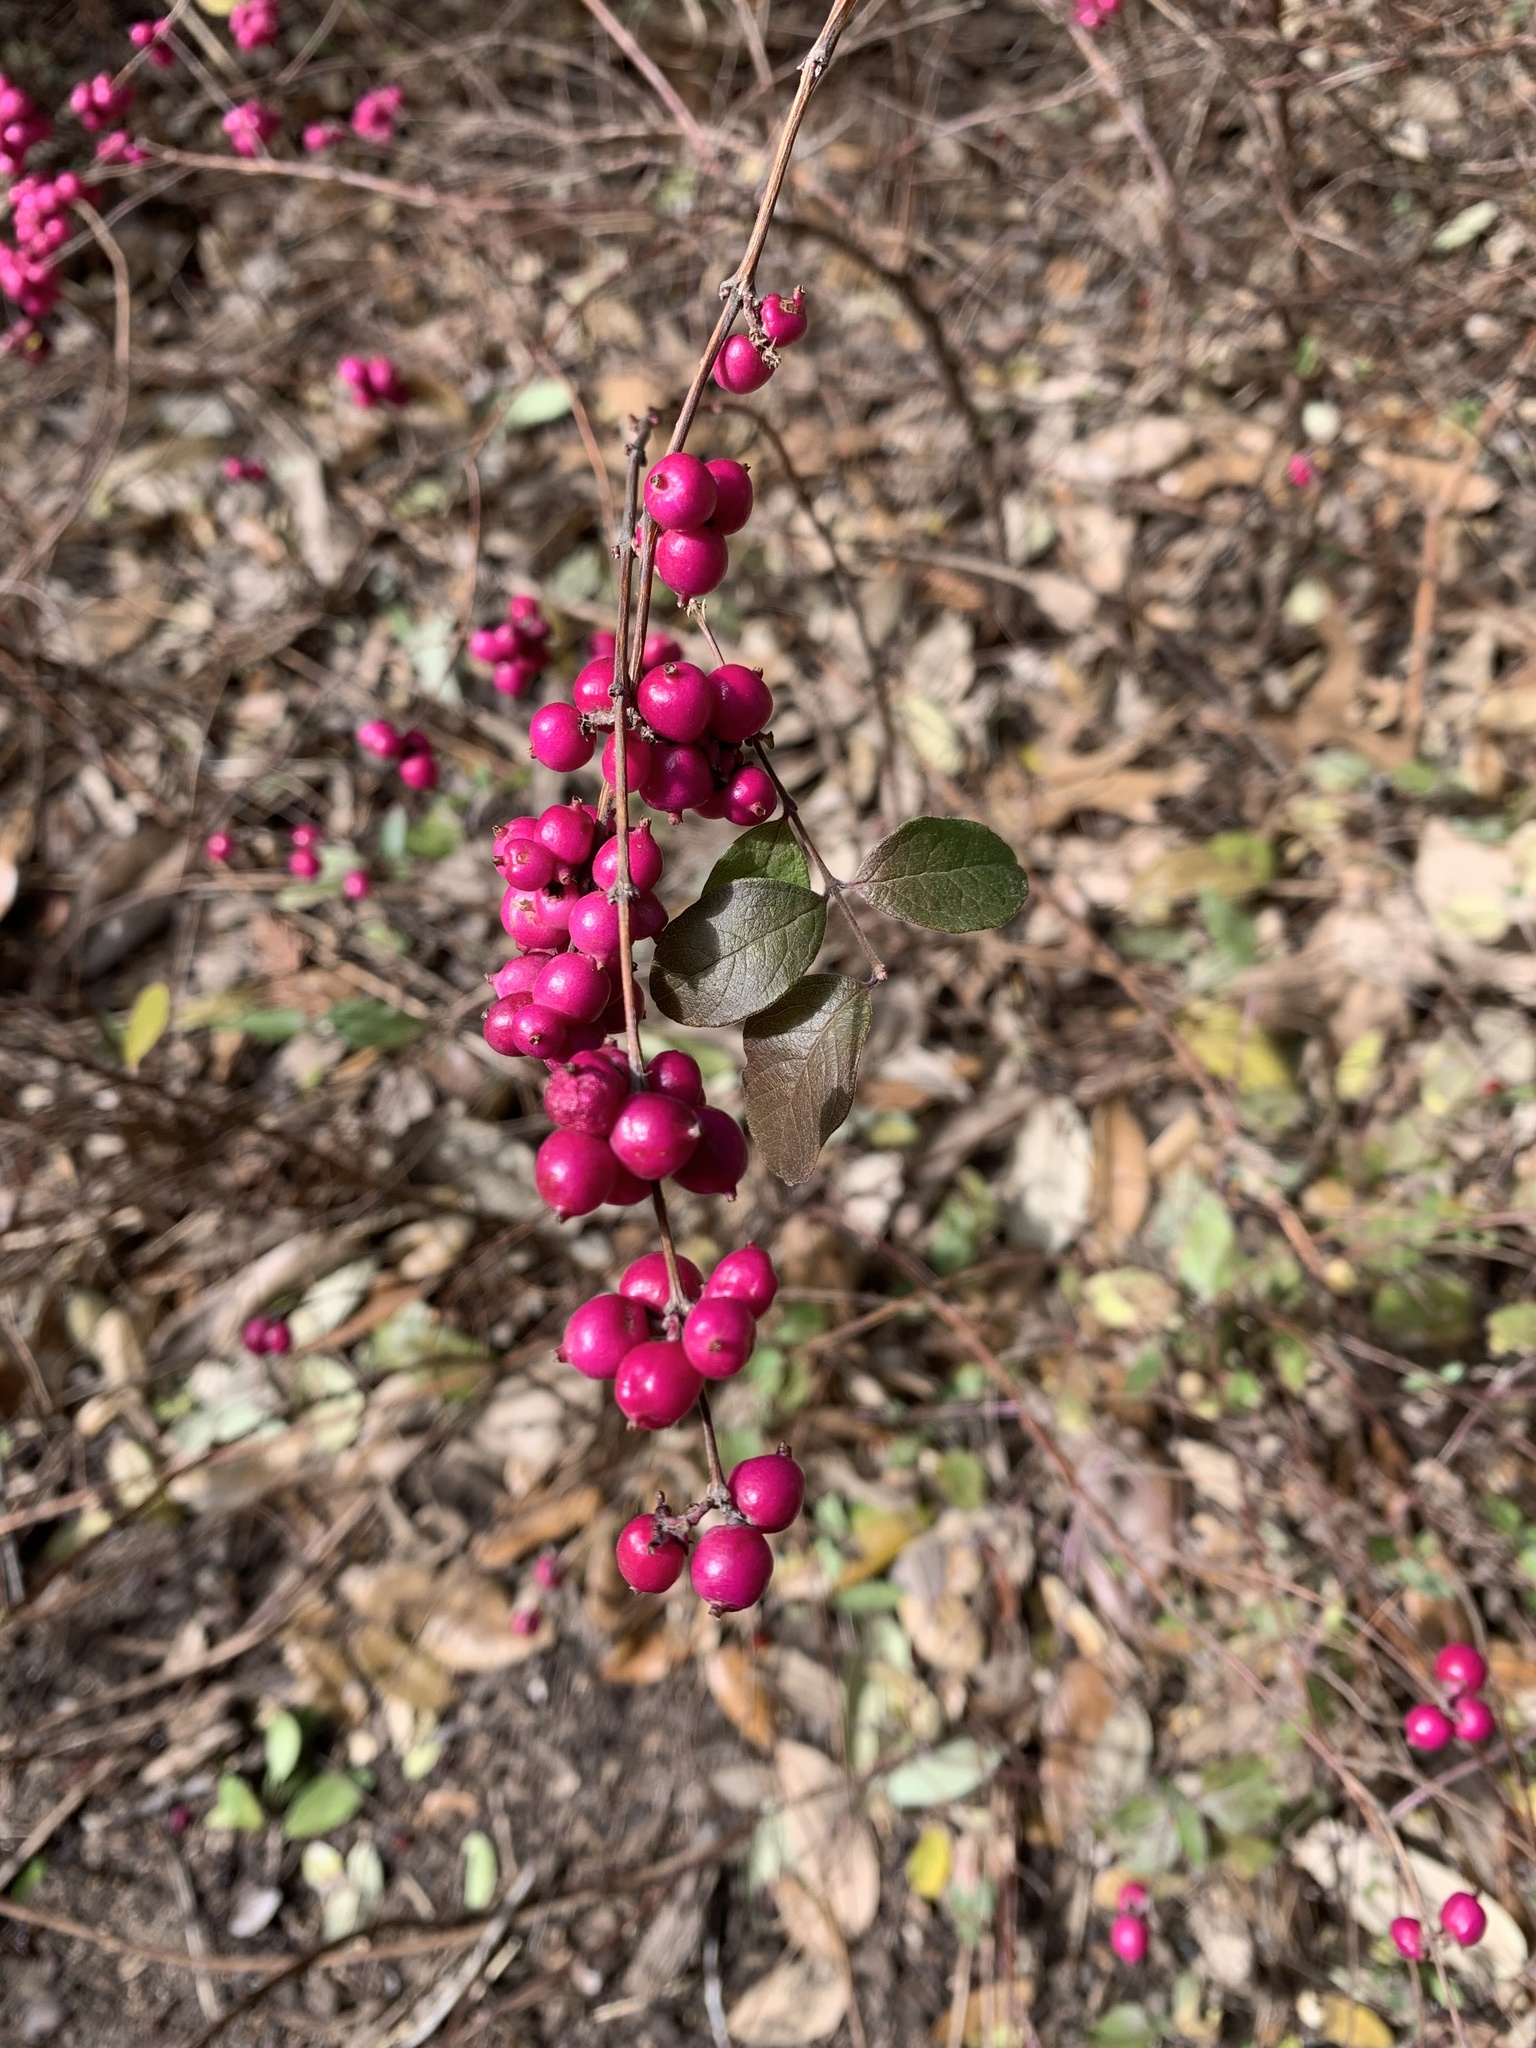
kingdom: Plantae
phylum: Tracheophyta
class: Magnoliopsida
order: Dipsacales
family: Caprifoliaceae
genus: Symphoricarpos
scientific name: Symphoricarpos orbiculatus
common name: Coralberry
